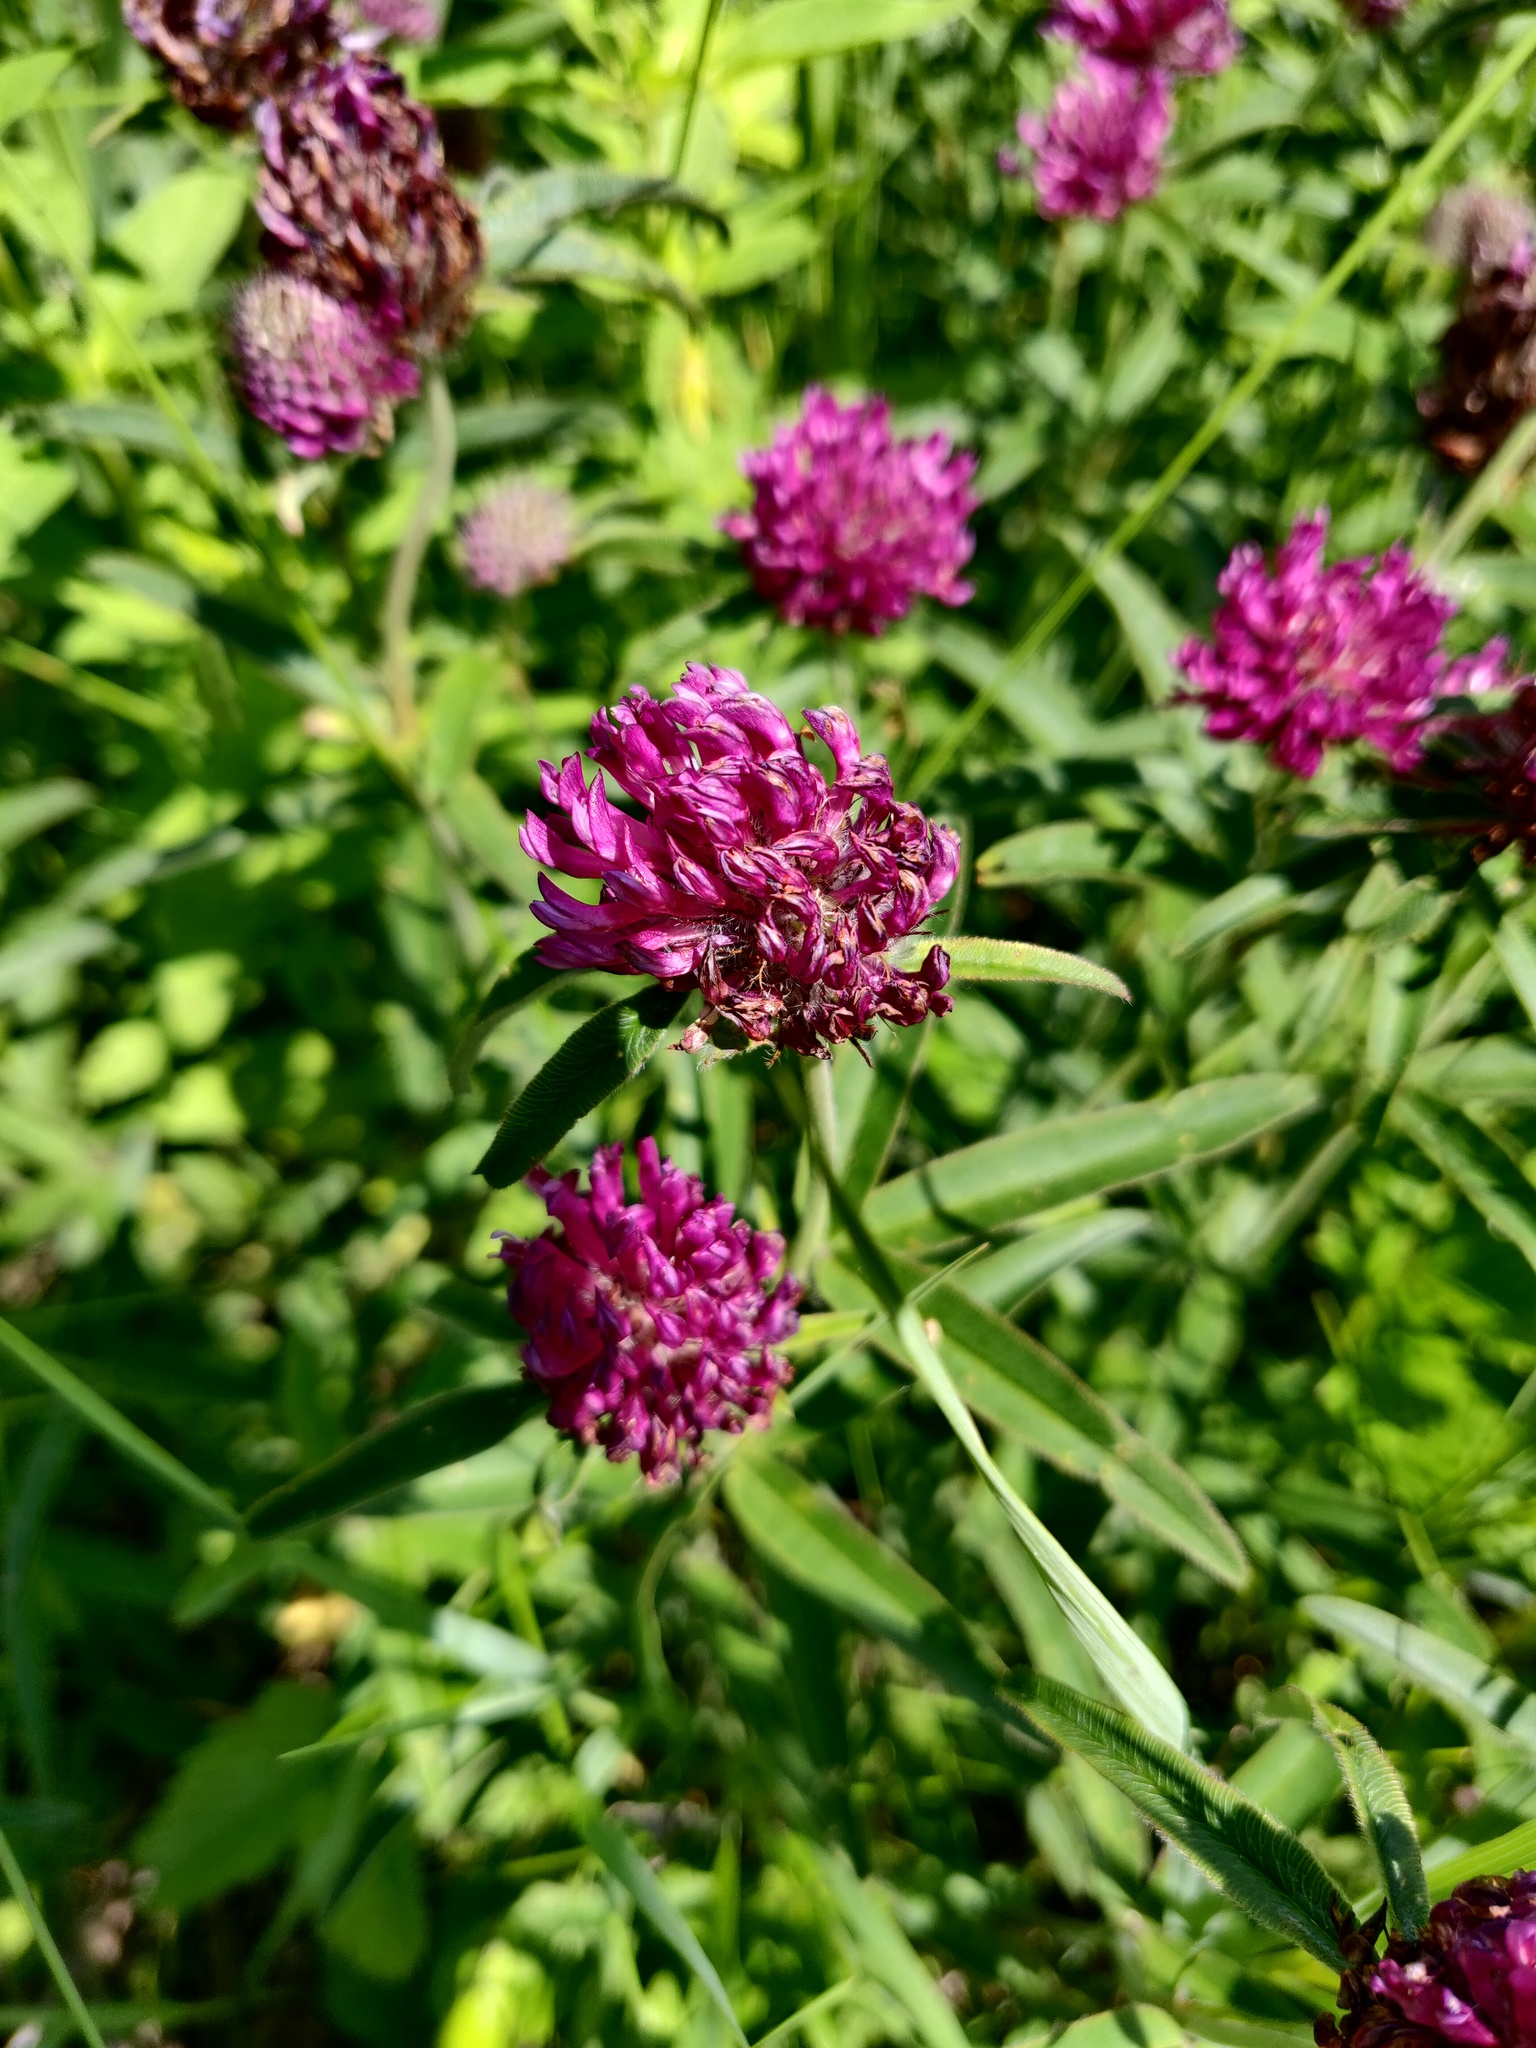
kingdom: Plantae
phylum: Tracheophyta
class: Magnoliopsida
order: Fabales
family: Fabaceae
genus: Trifolium
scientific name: Trifolium alpestre
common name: Owl-head clover
